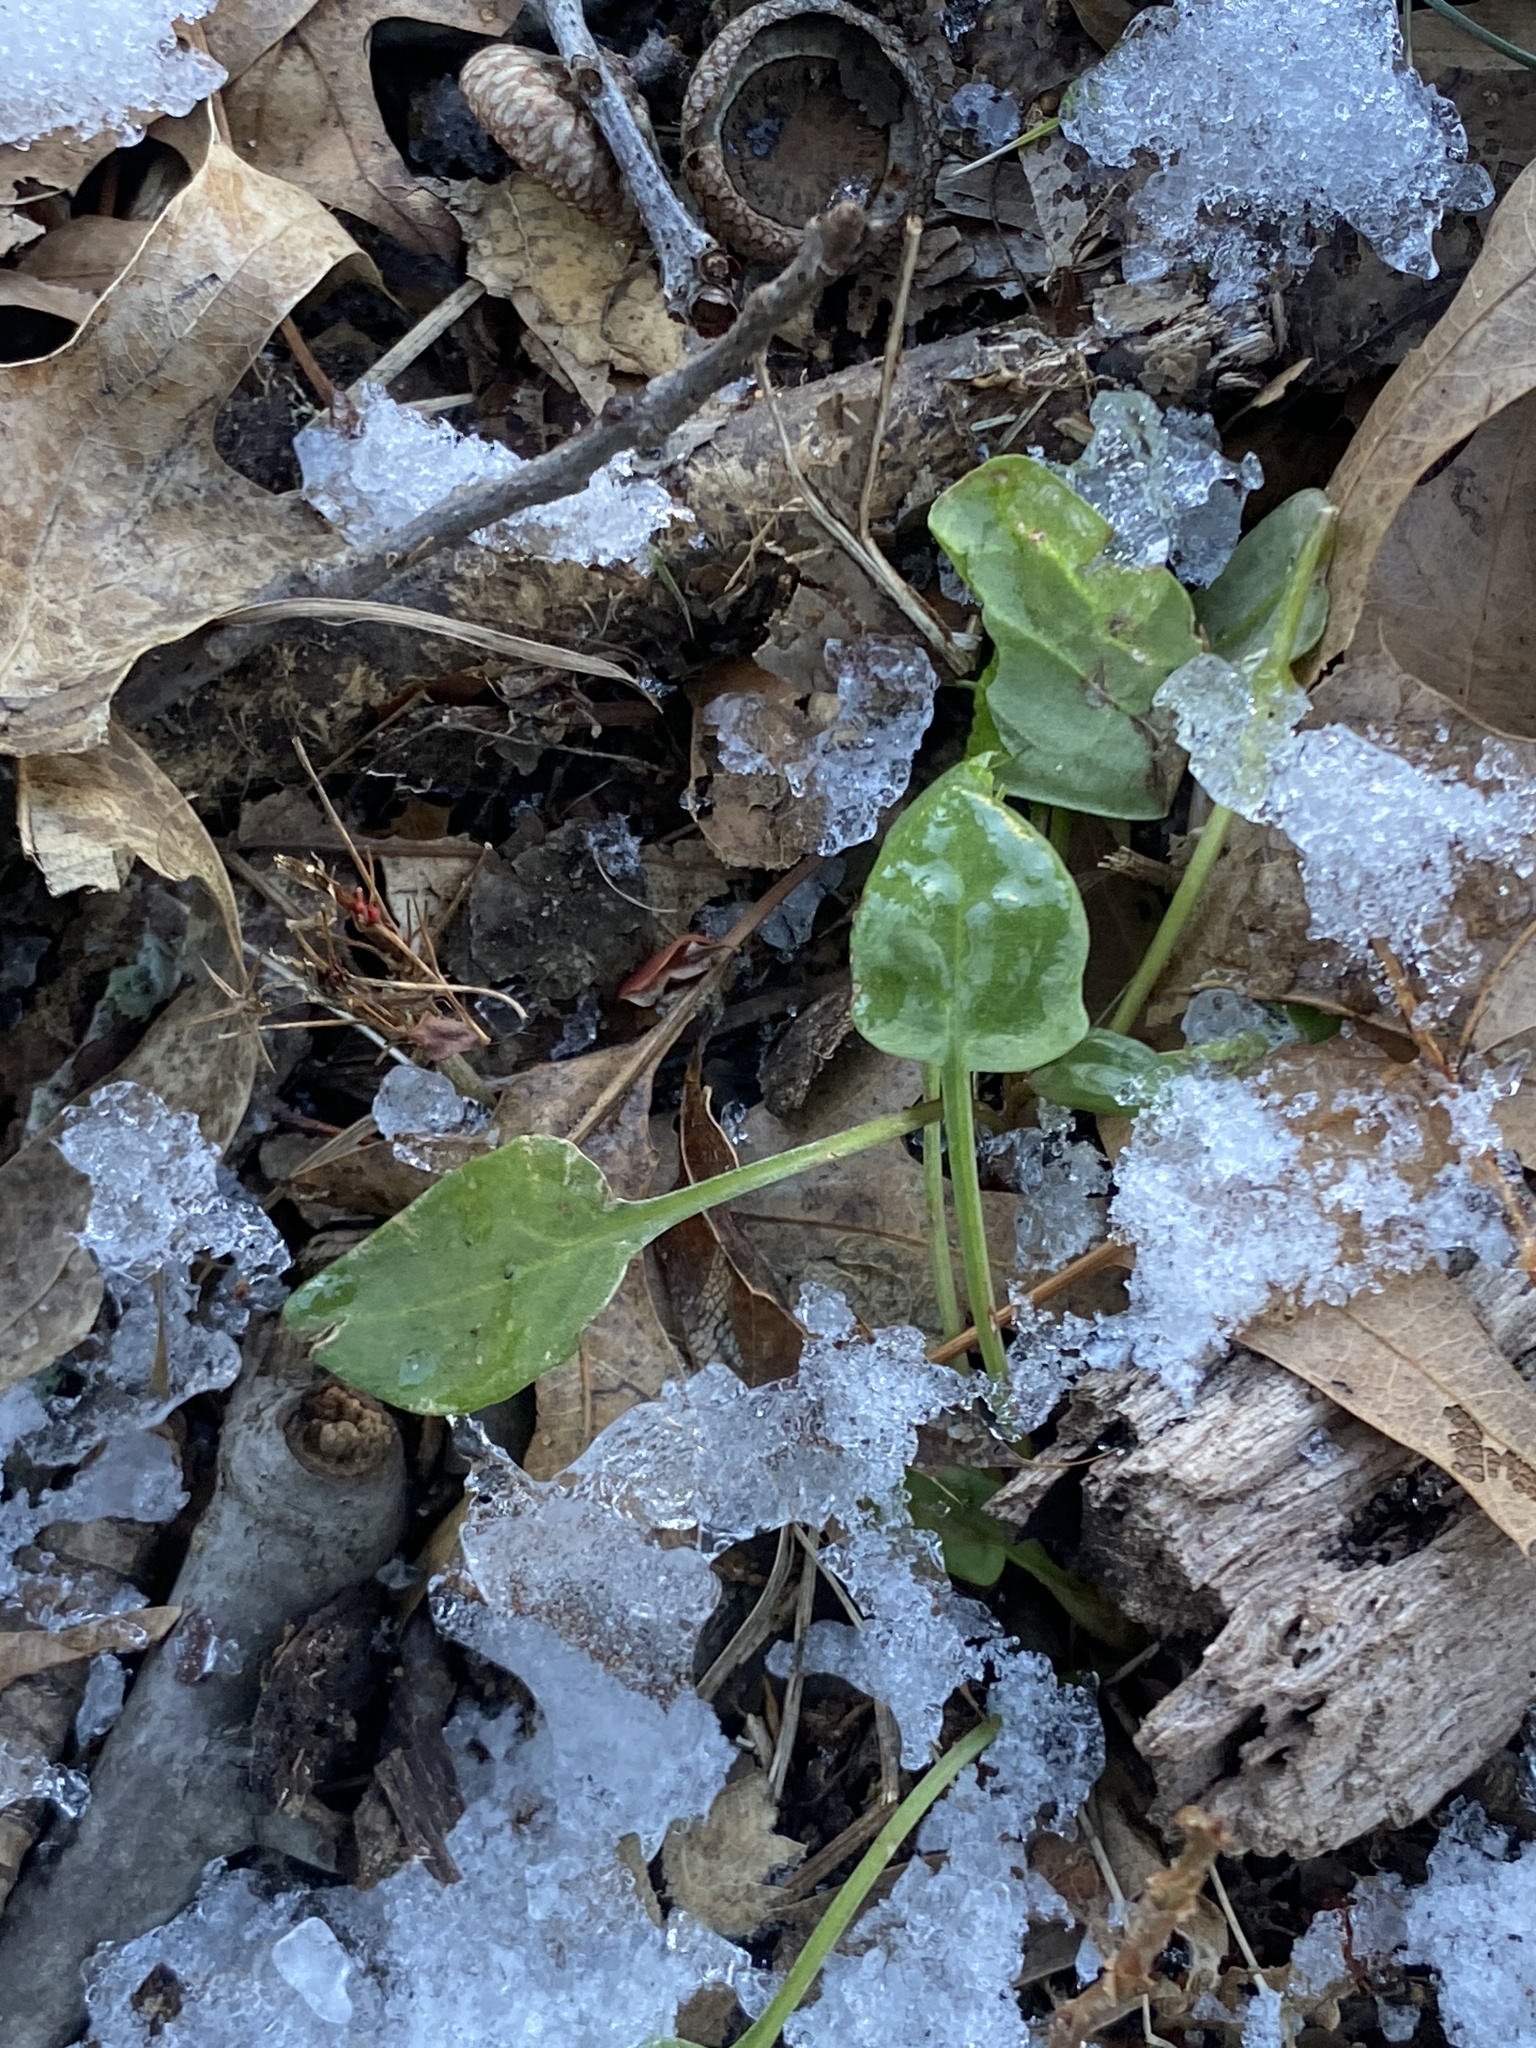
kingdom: Plantae
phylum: Tracheophyta
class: Magnoliopsida
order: Caryophyllales
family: Polygonaceae
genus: Rumex
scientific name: Rumex acetosella
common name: Common sheep sorrel
